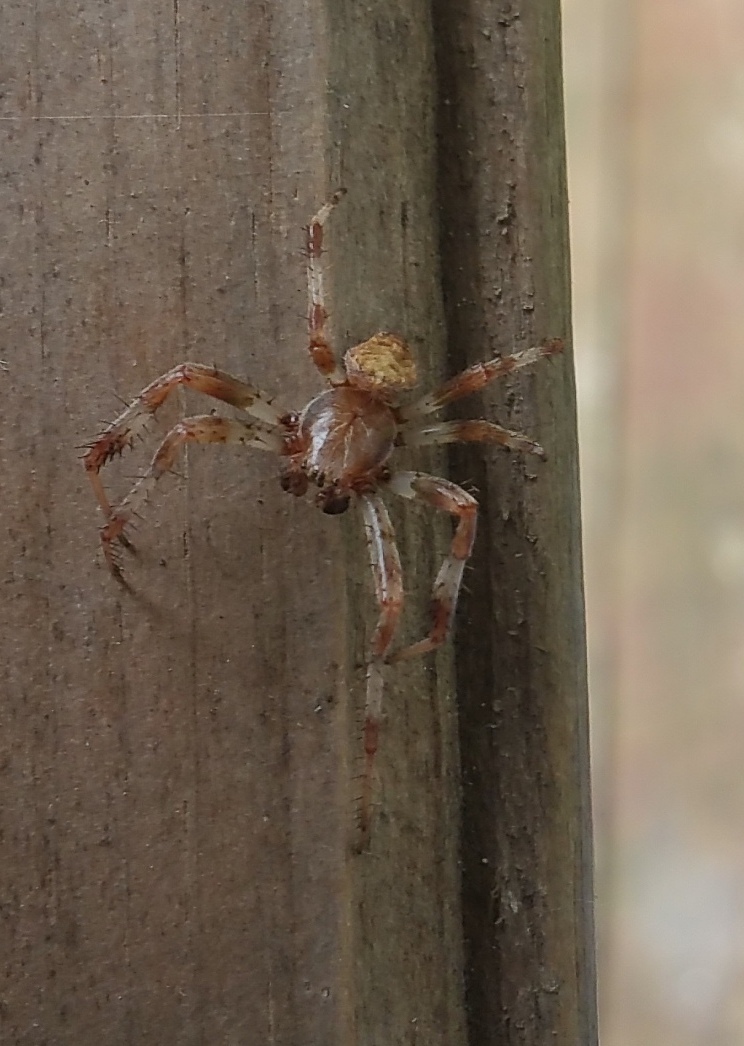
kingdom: Animalia
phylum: Arthropoda
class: Arachnida
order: Araneae
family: Araneidae
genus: Araneus
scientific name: Araneus marmoreus
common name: Marbled orbweaver
